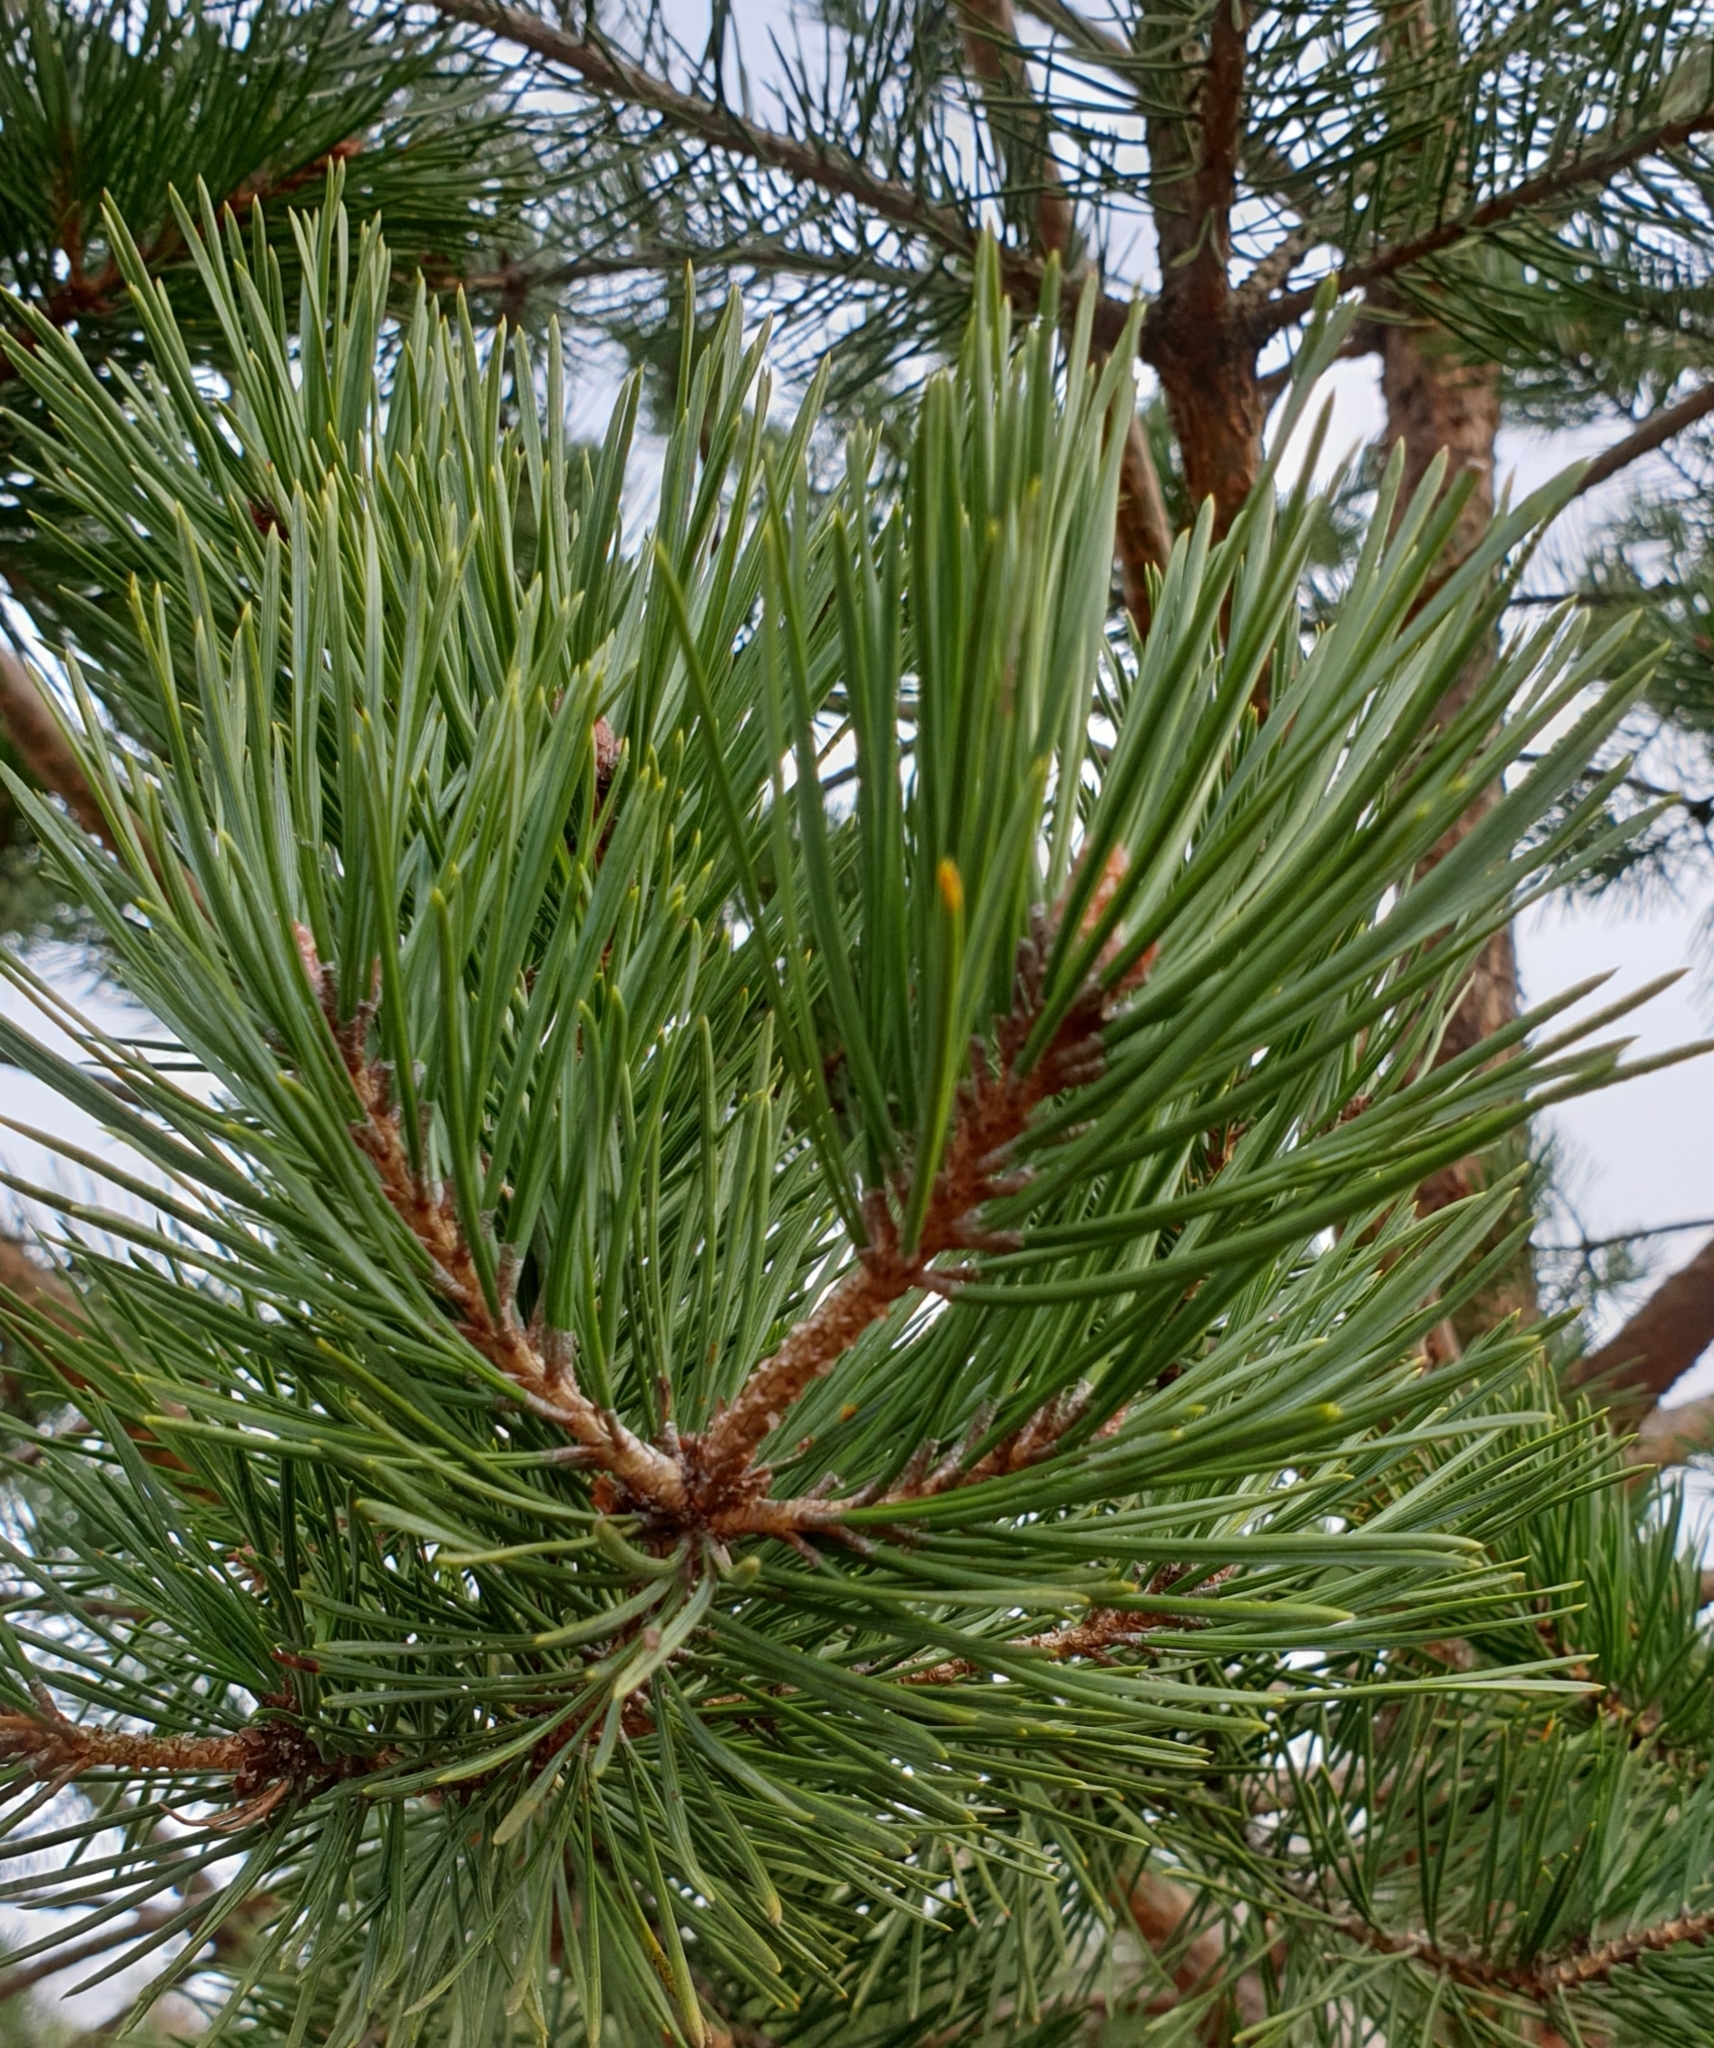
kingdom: Plantae
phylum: Tracheophyta
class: Pinopsida
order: Pinales
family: Pinaceae
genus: Pinus
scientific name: Pinus sylvestris
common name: Scots pine
